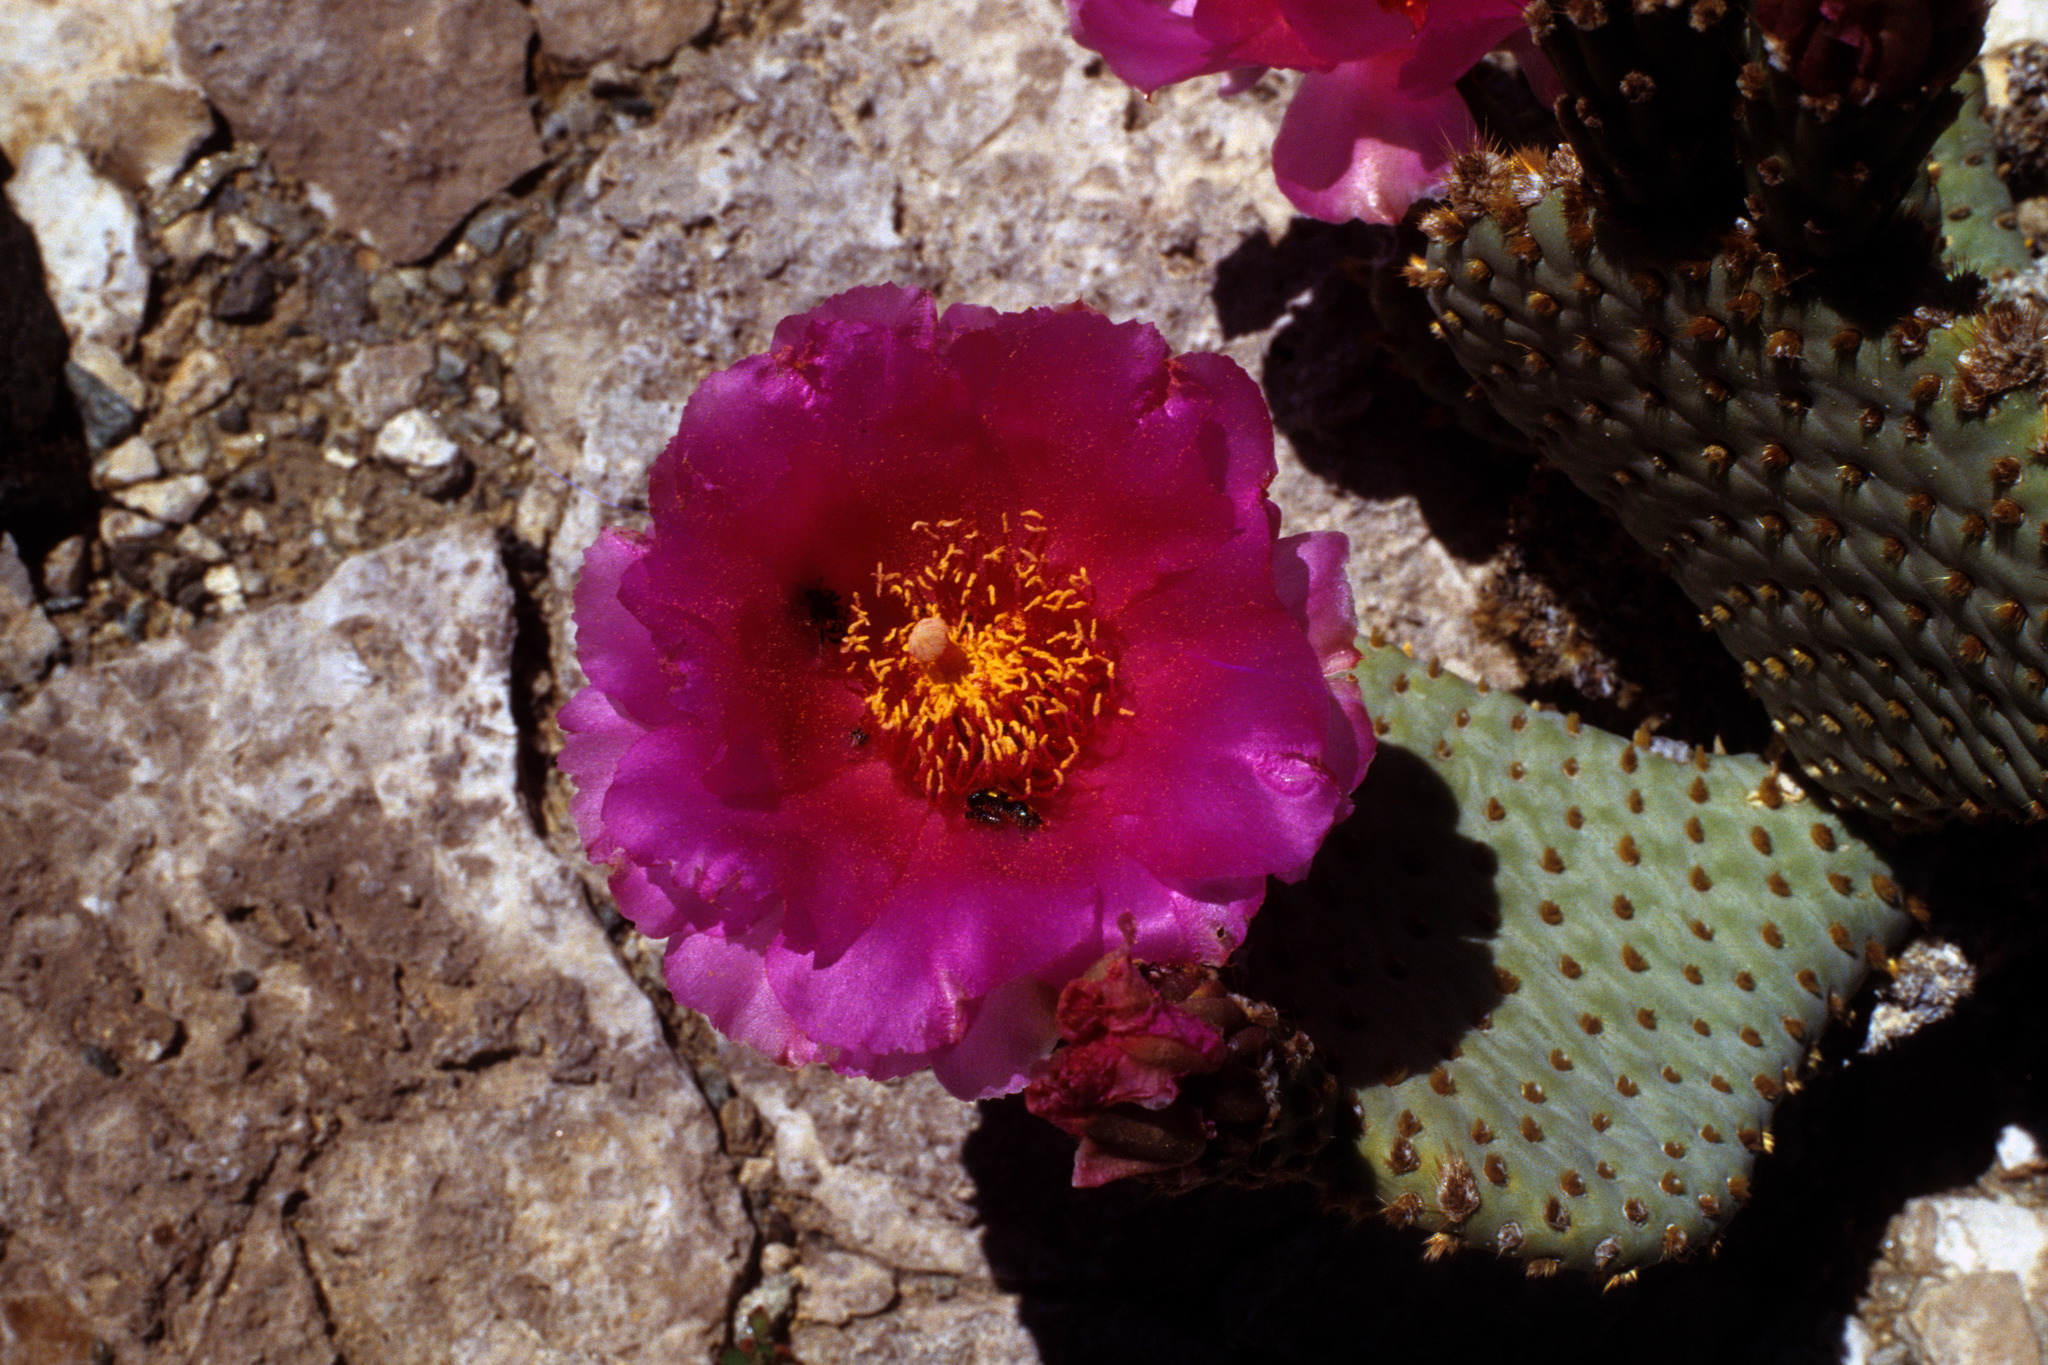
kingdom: Plantae
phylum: Tracheophyta
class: Magnoliopsida
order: Caryophyllales
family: Cactaceae
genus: Opuntia
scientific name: Opuntia basilaris
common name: Beavertail prickly-pear
